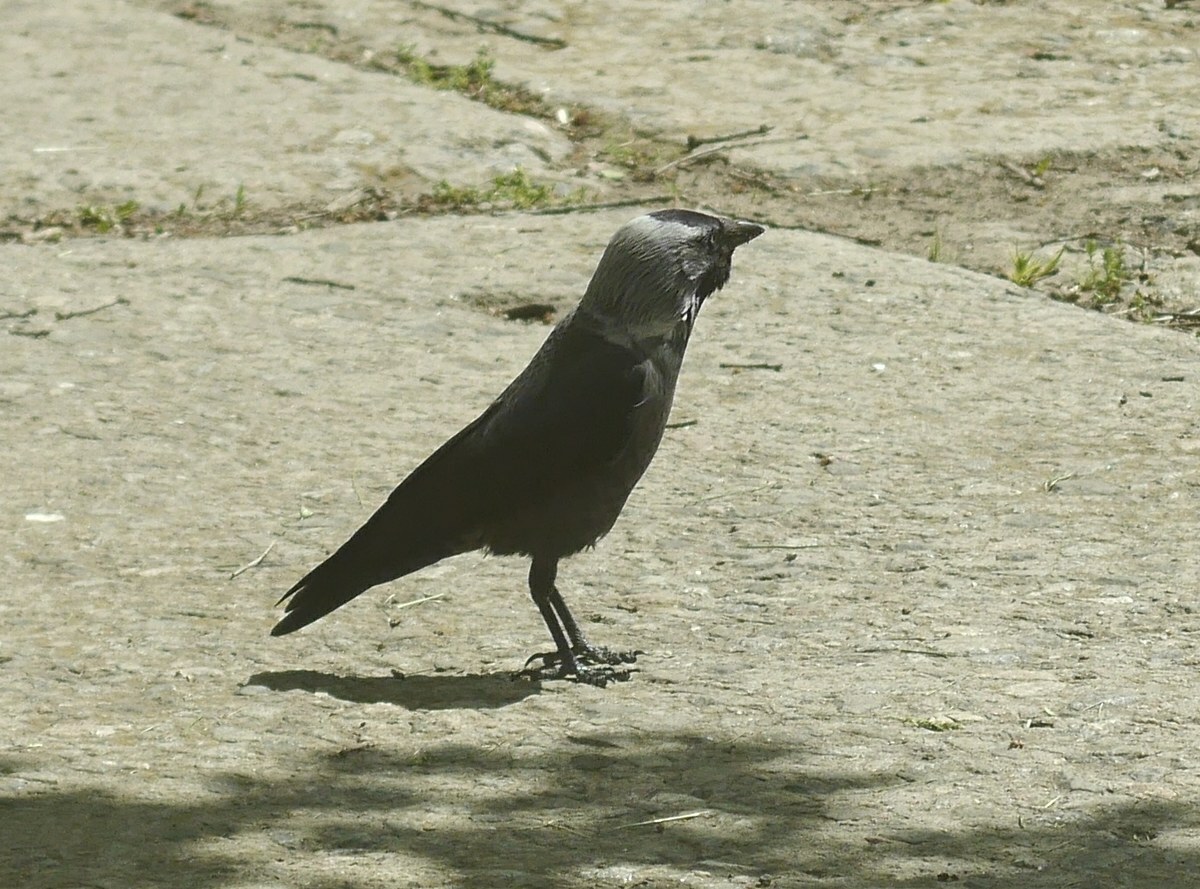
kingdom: Animalia
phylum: Chordata
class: Aves
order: Passeriformes
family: Corvidae
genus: Coloeus
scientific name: Coloeus monedula
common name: Western jackdaw
